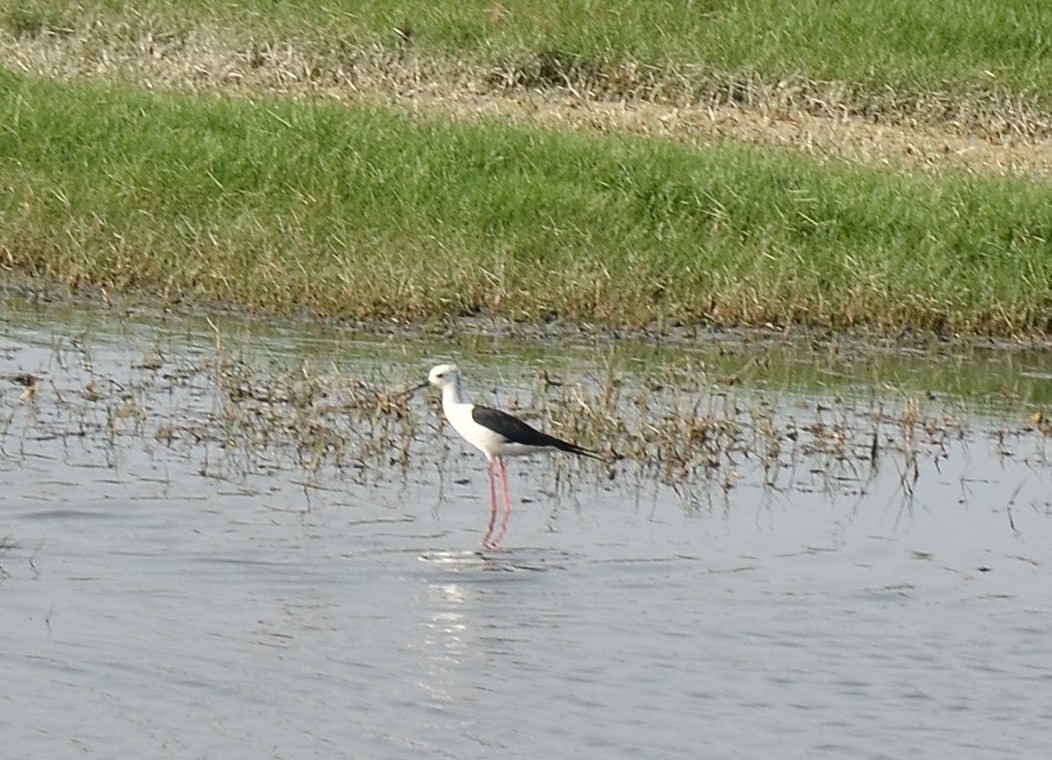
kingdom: Animalia
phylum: Chordata
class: Aves
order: Charadriiformes
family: Recurvirostridae
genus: Himantopus
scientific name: Himantopus himantopus
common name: Black-winged stilt
